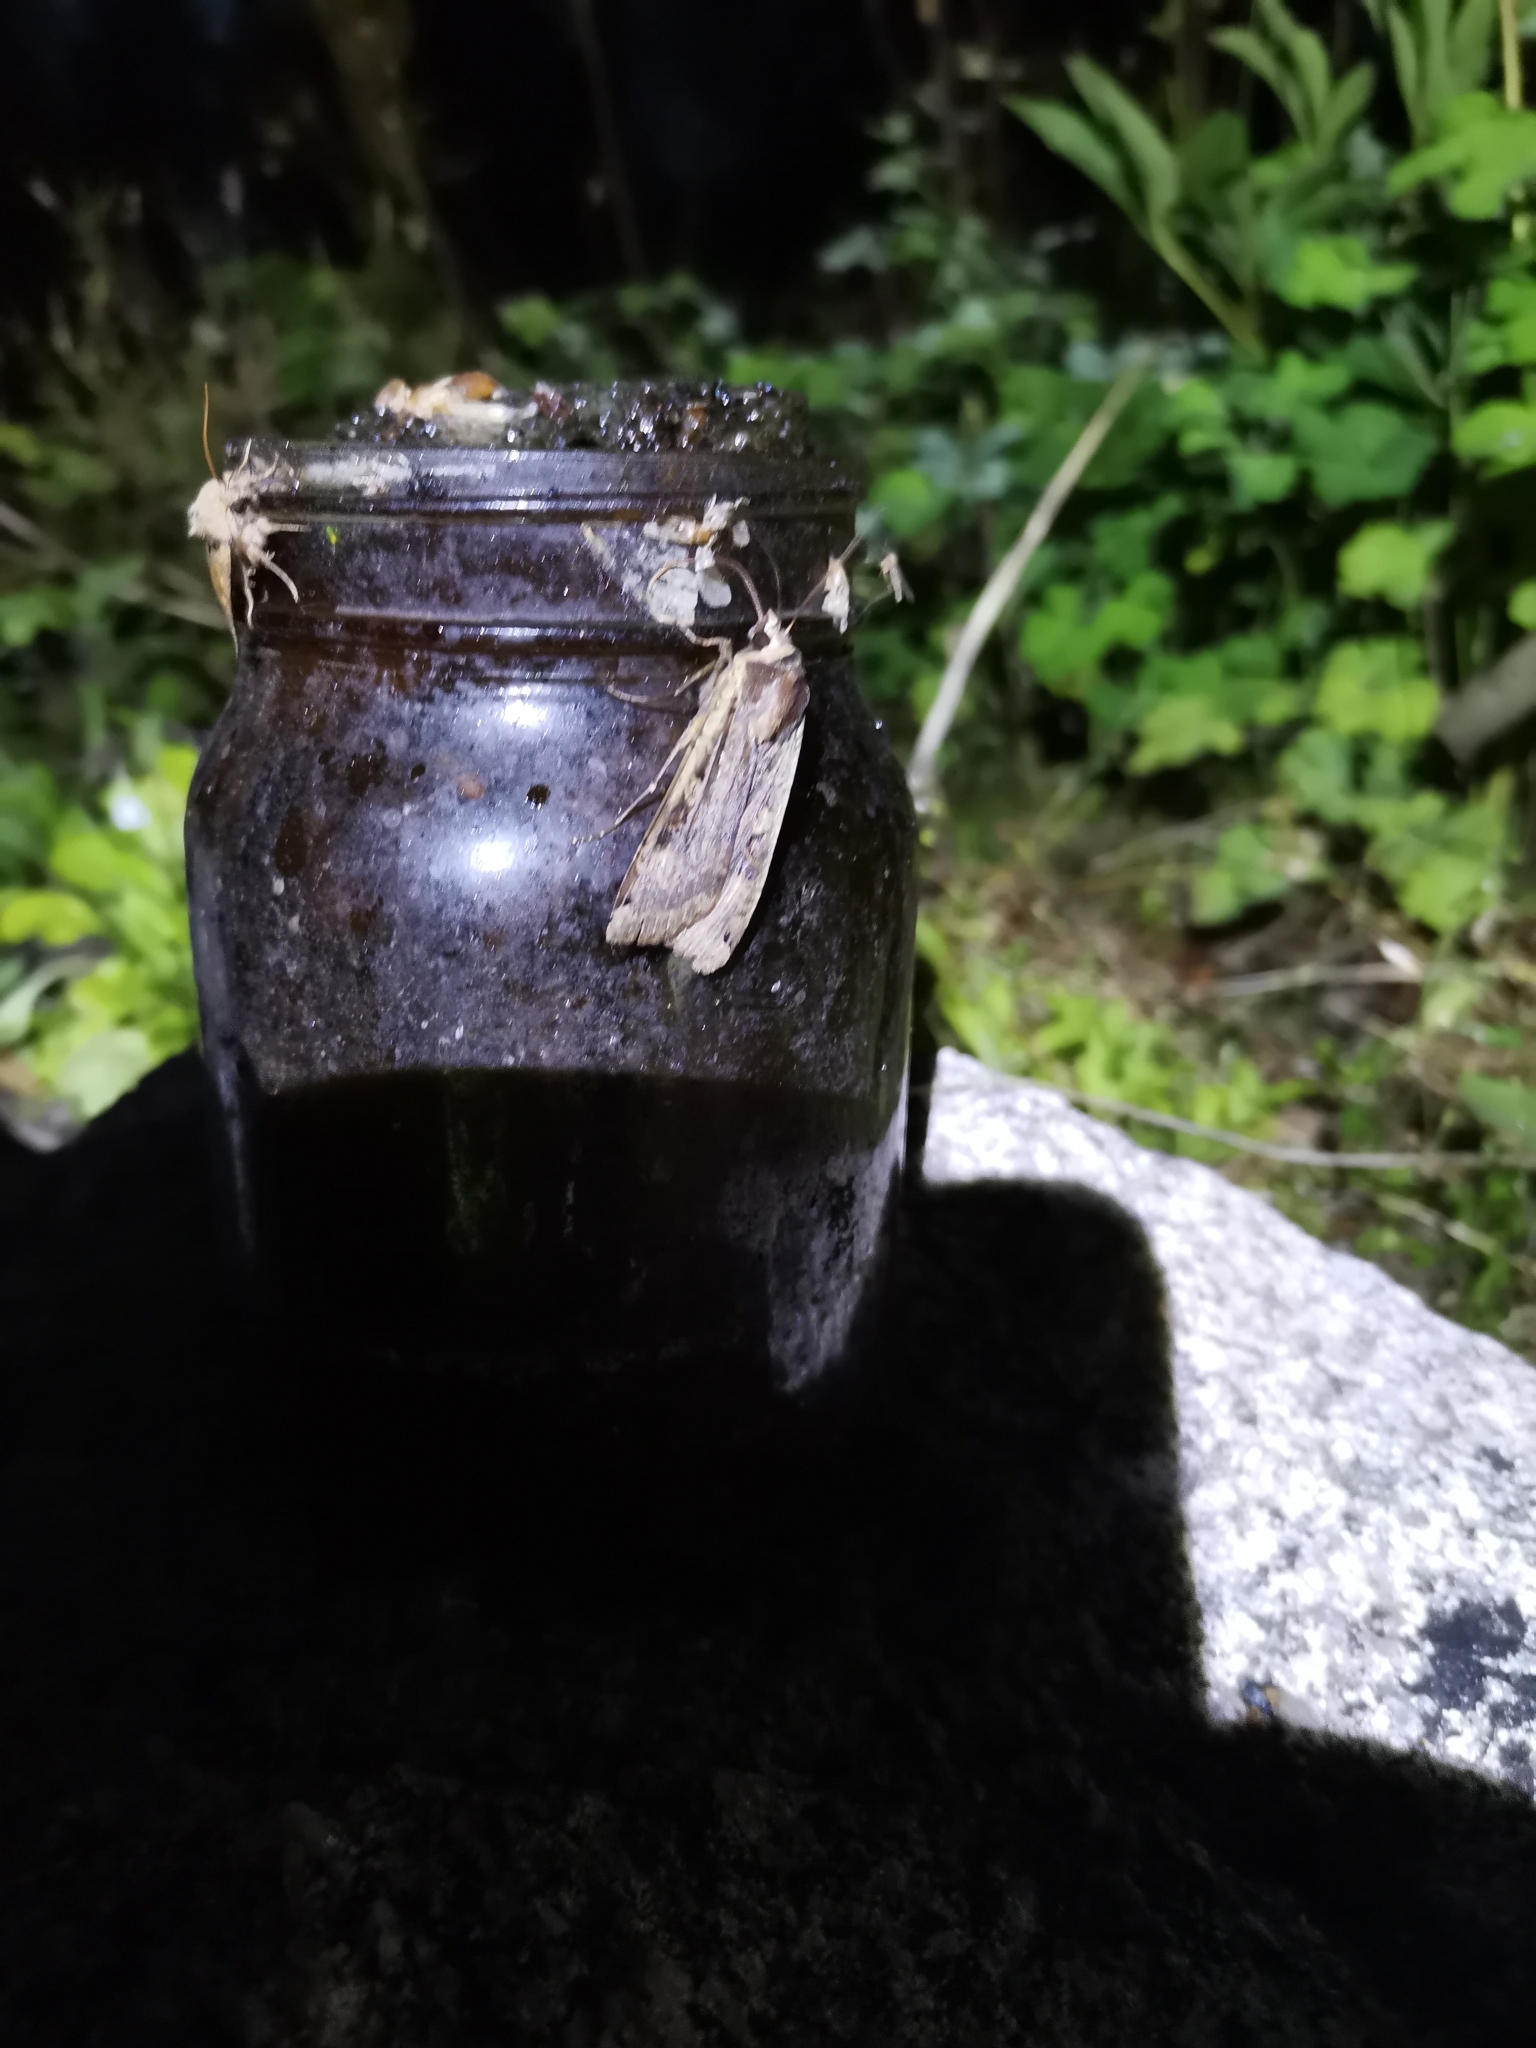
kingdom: Animalia
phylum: Arthropoda
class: Insecta
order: Lepidoptera
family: Noctuidae
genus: Noctua
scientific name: Noctua pronuba
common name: Large yellow underwing
